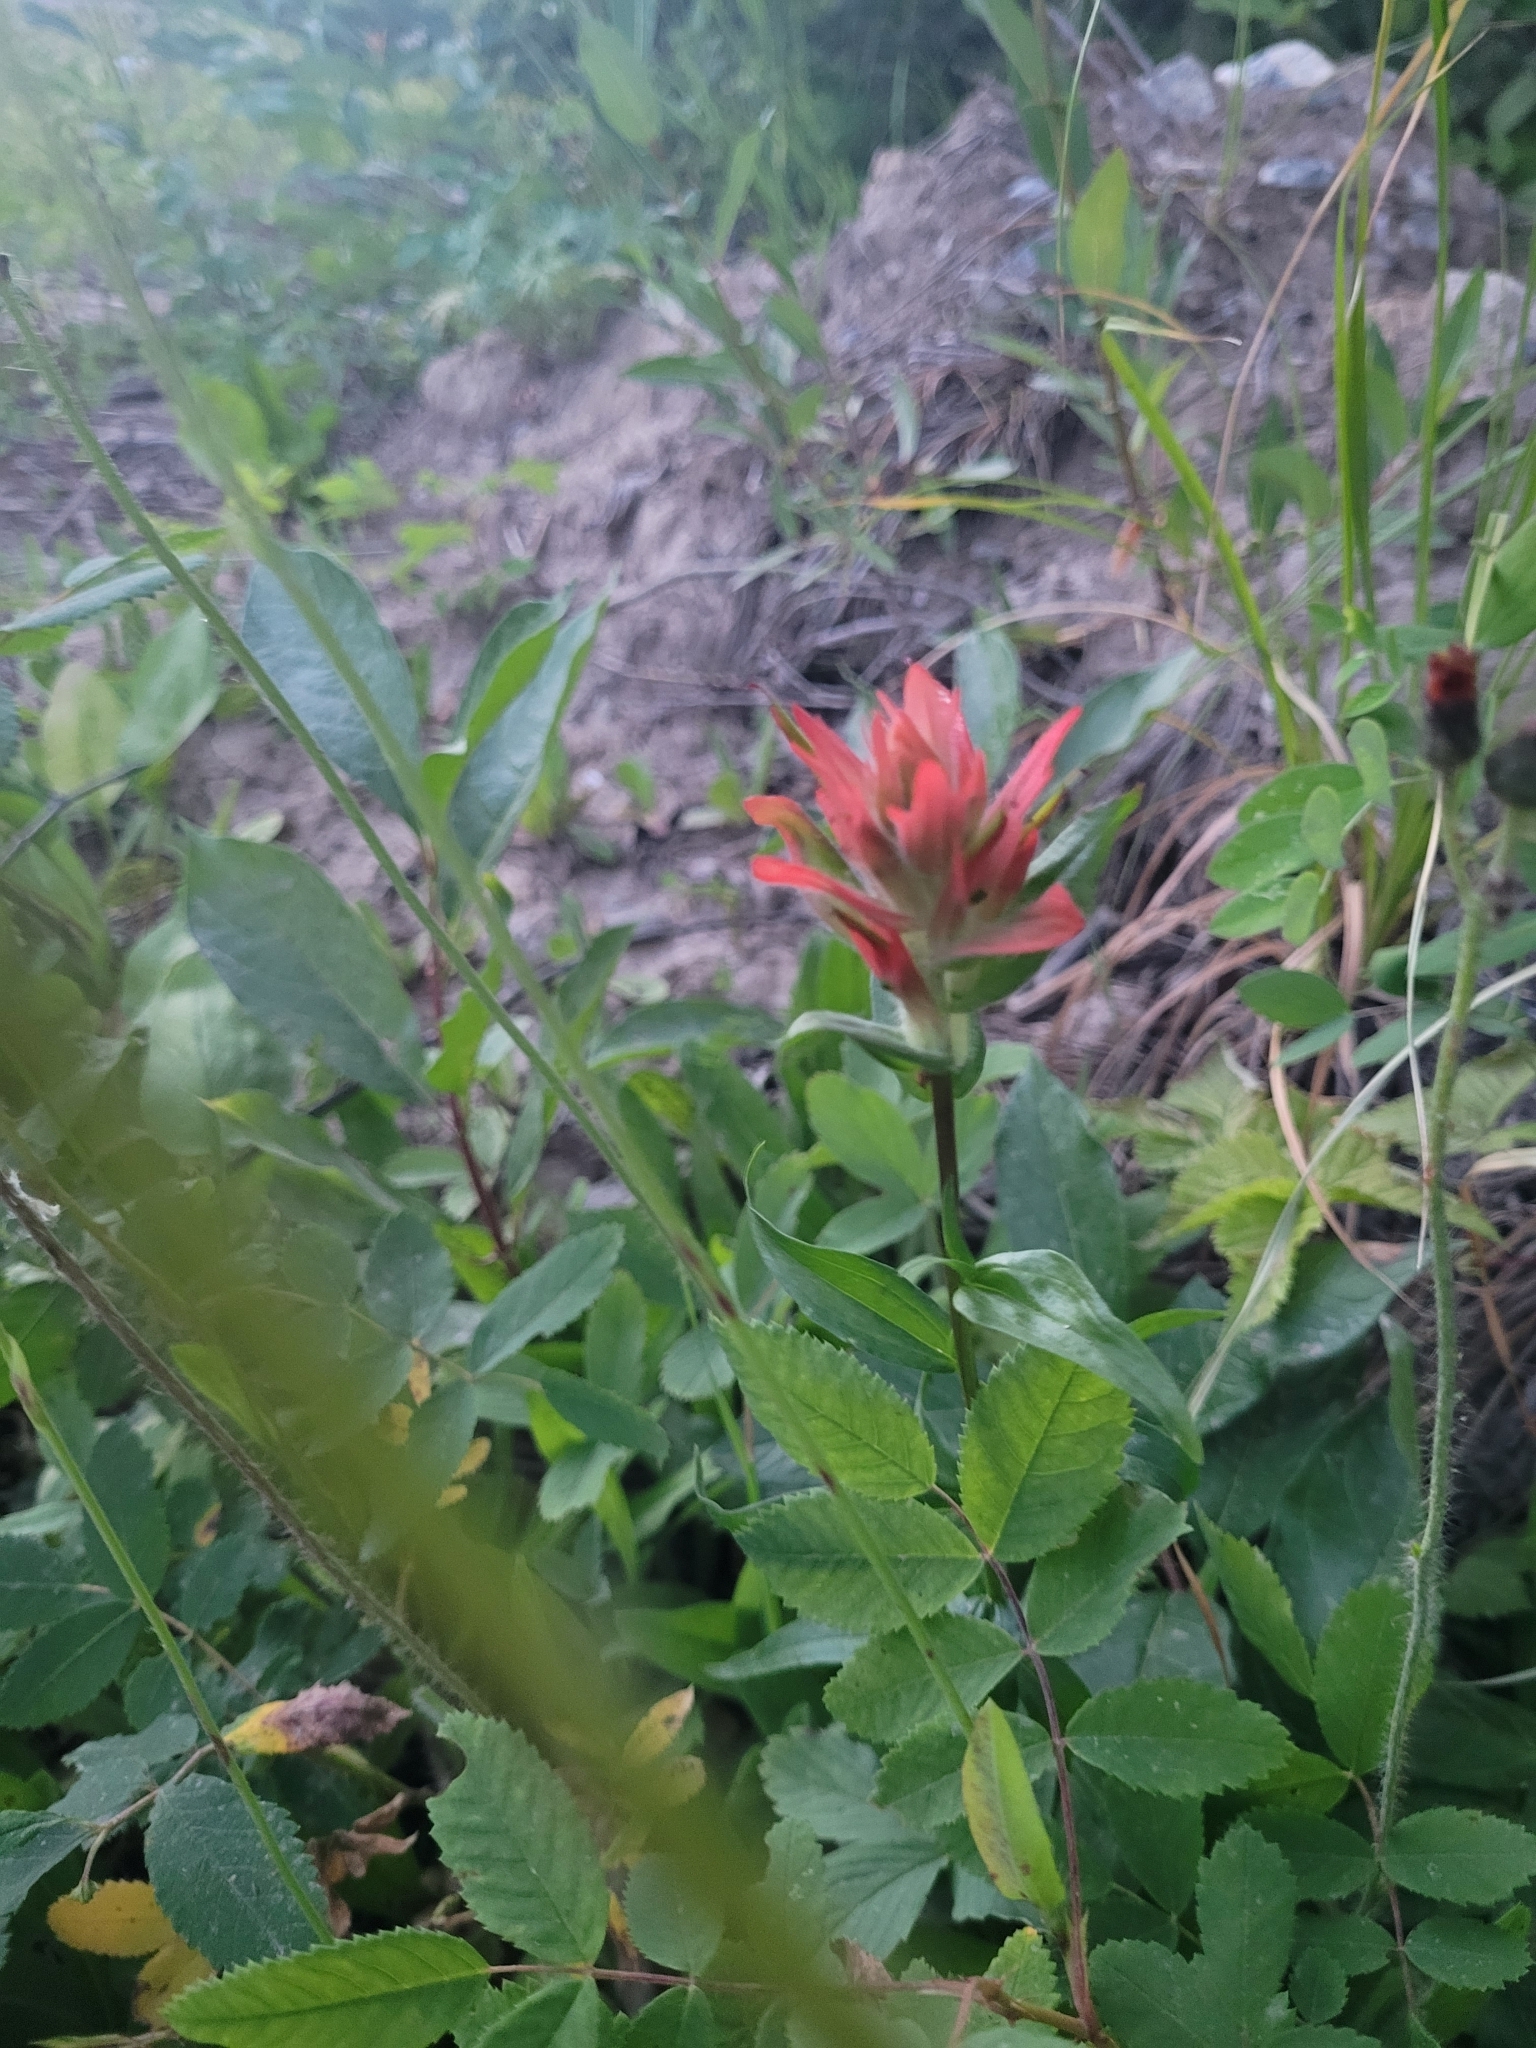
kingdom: Plantae
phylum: Tracheophyta
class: Magnoliopsida
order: Lamiales
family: Orobanchaceae
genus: Castilleja
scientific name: Castilleja miniata
